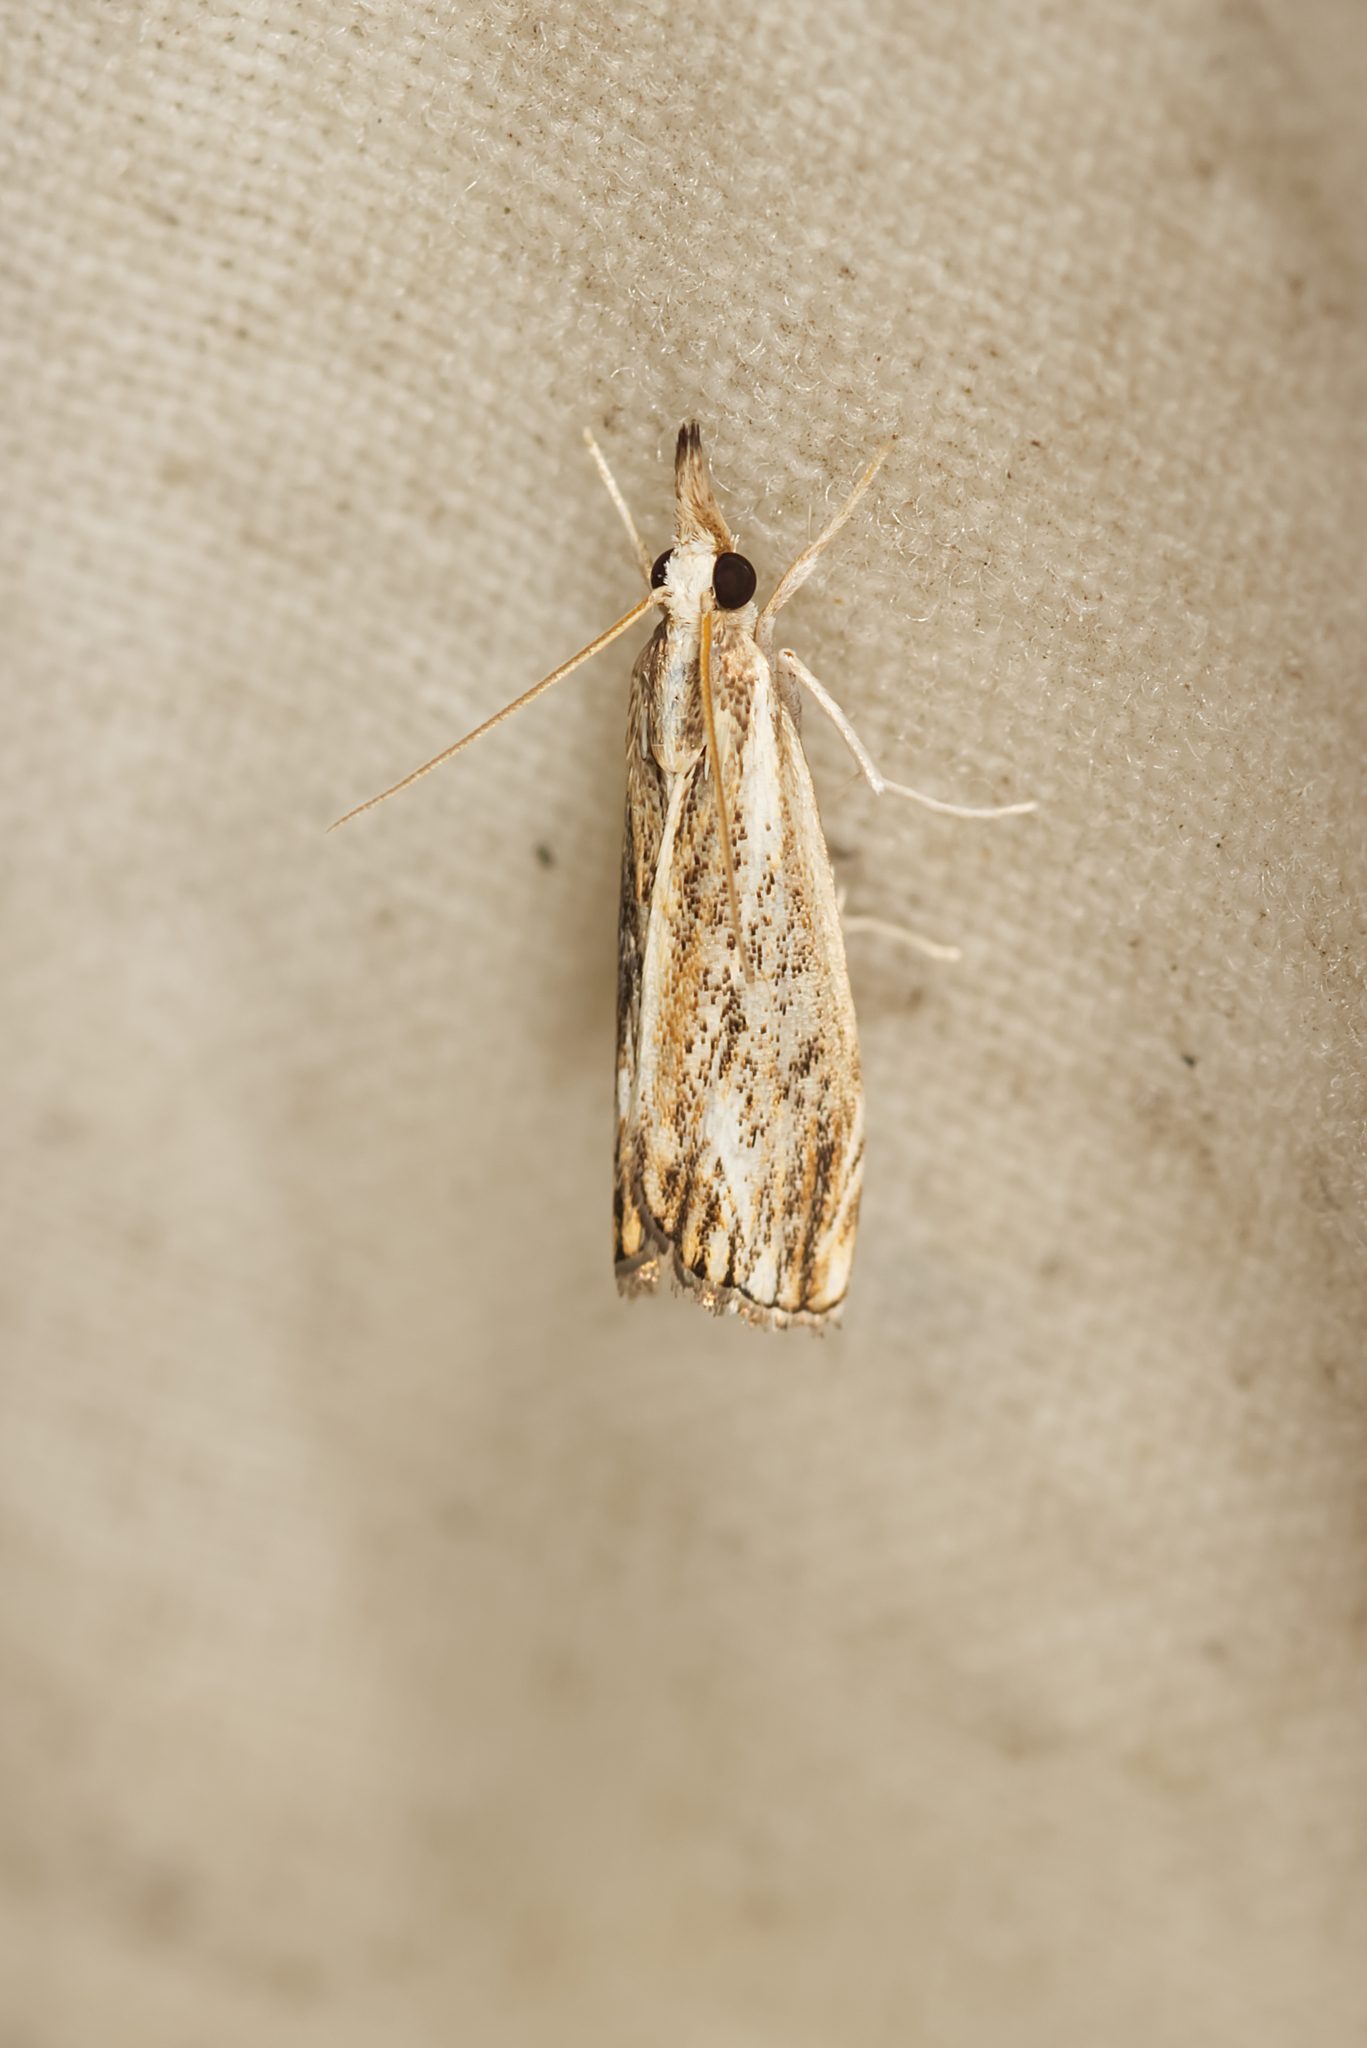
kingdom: Animalia
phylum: Arthropoda
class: Insecta
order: Lepidoptera
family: Crambidae
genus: Catoptria
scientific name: Catoptria verellus
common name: Marbled grass-veneer
